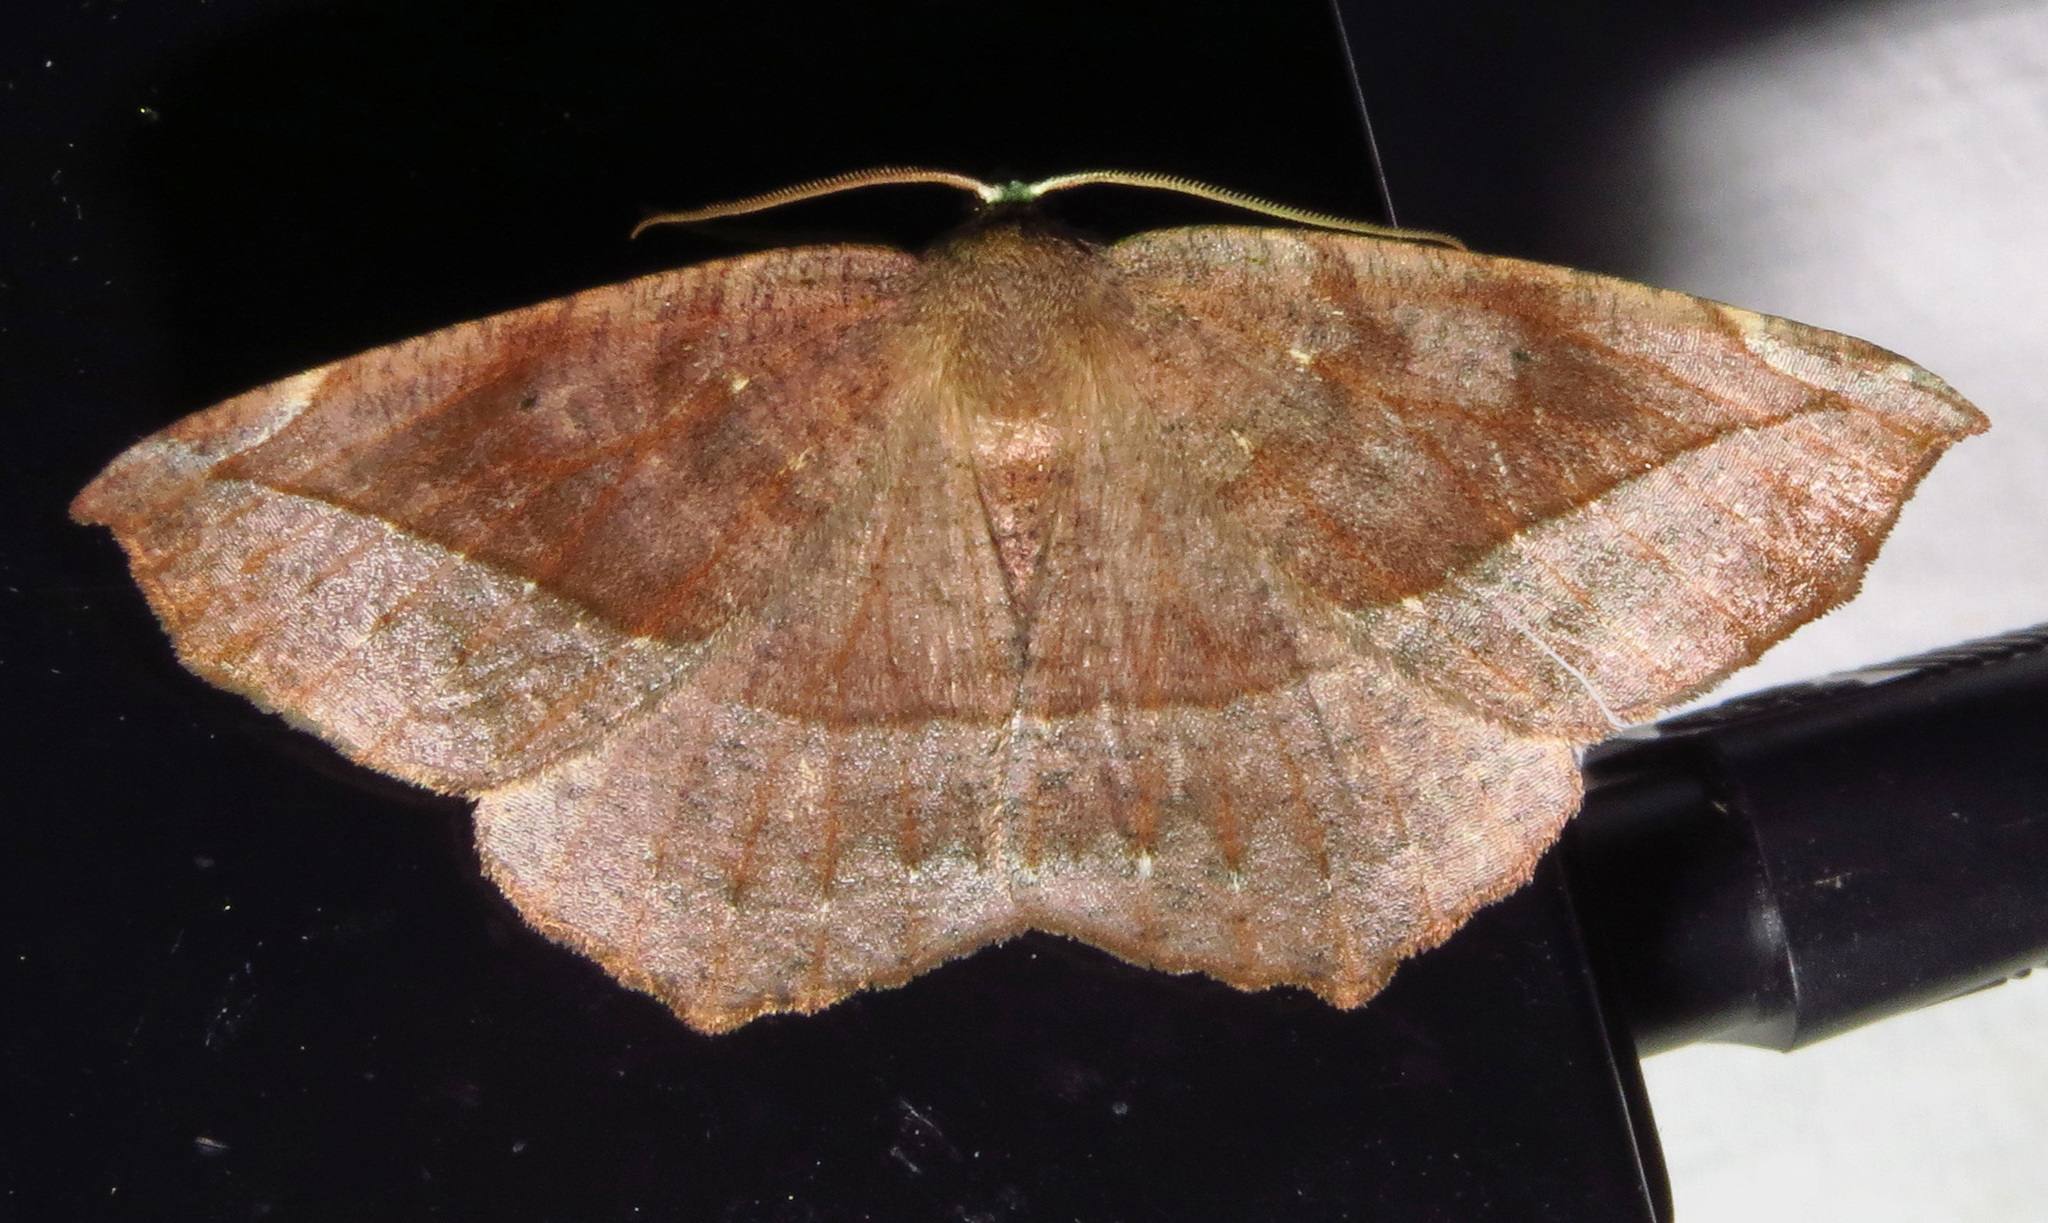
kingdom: Animalia
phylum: Arthropoda
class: Insecta
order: Lepidoptera
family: Geometridae
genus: Eutrapela
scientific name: Eutrapela clemataria
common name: Curved-toothed geometer
